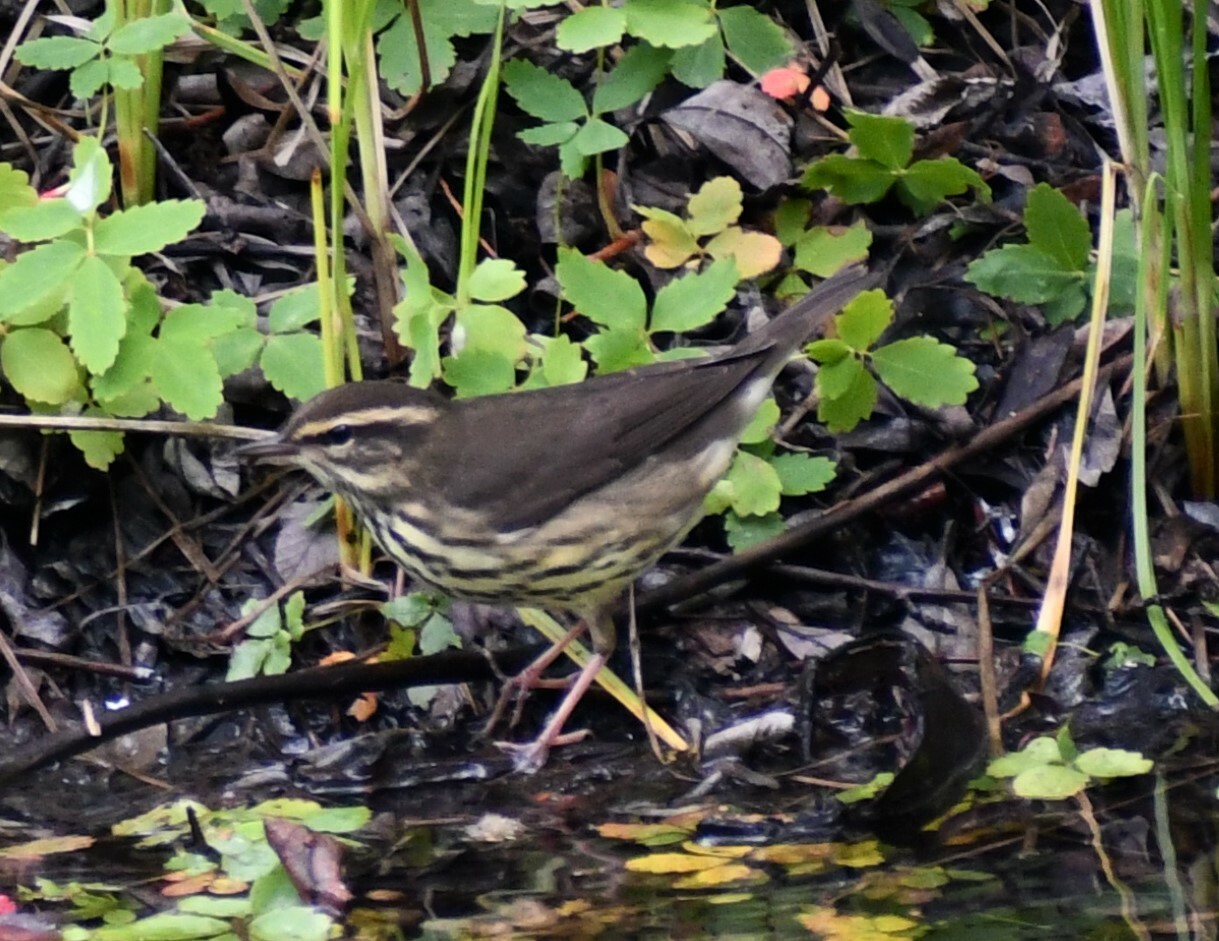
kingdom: Animalia
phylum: Chordata
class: Aves
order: Passeriformes
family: Parulidae
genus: Parkesia
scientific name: Parkesia noveboracensis
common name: Northern waterthrush
